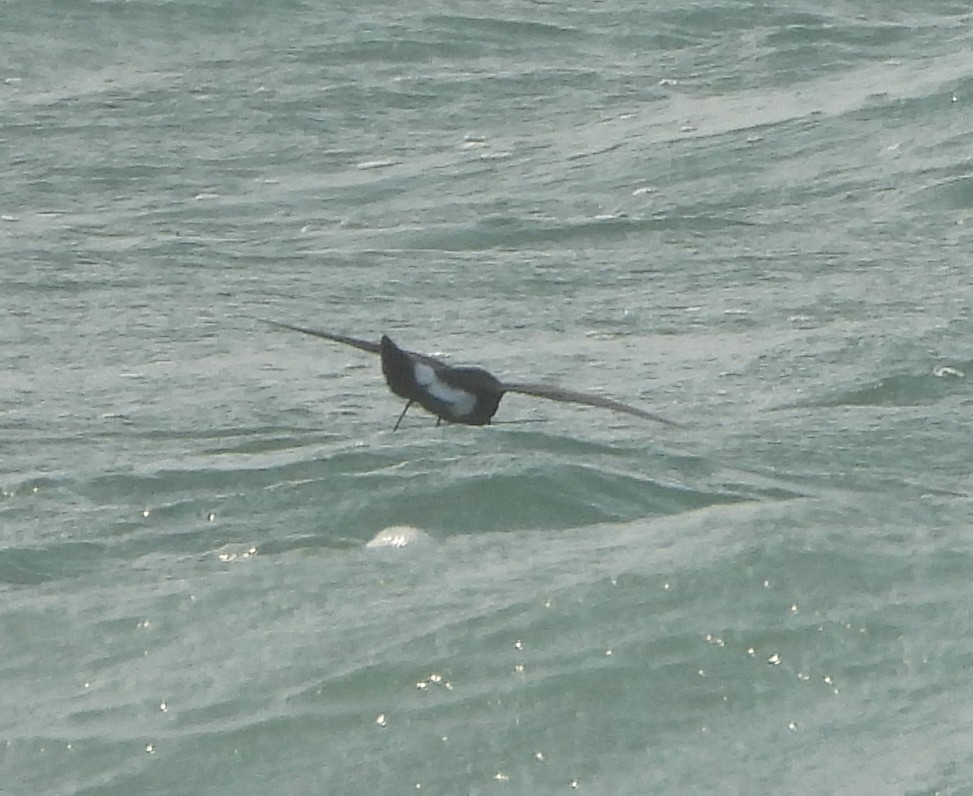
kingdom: Animalia
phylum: Chordata
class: Aves
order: Procellariiformes
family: Hydrobatidae
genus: Oceanites
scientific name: Oceanites oceanicus
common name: Wilson's storm petrel
